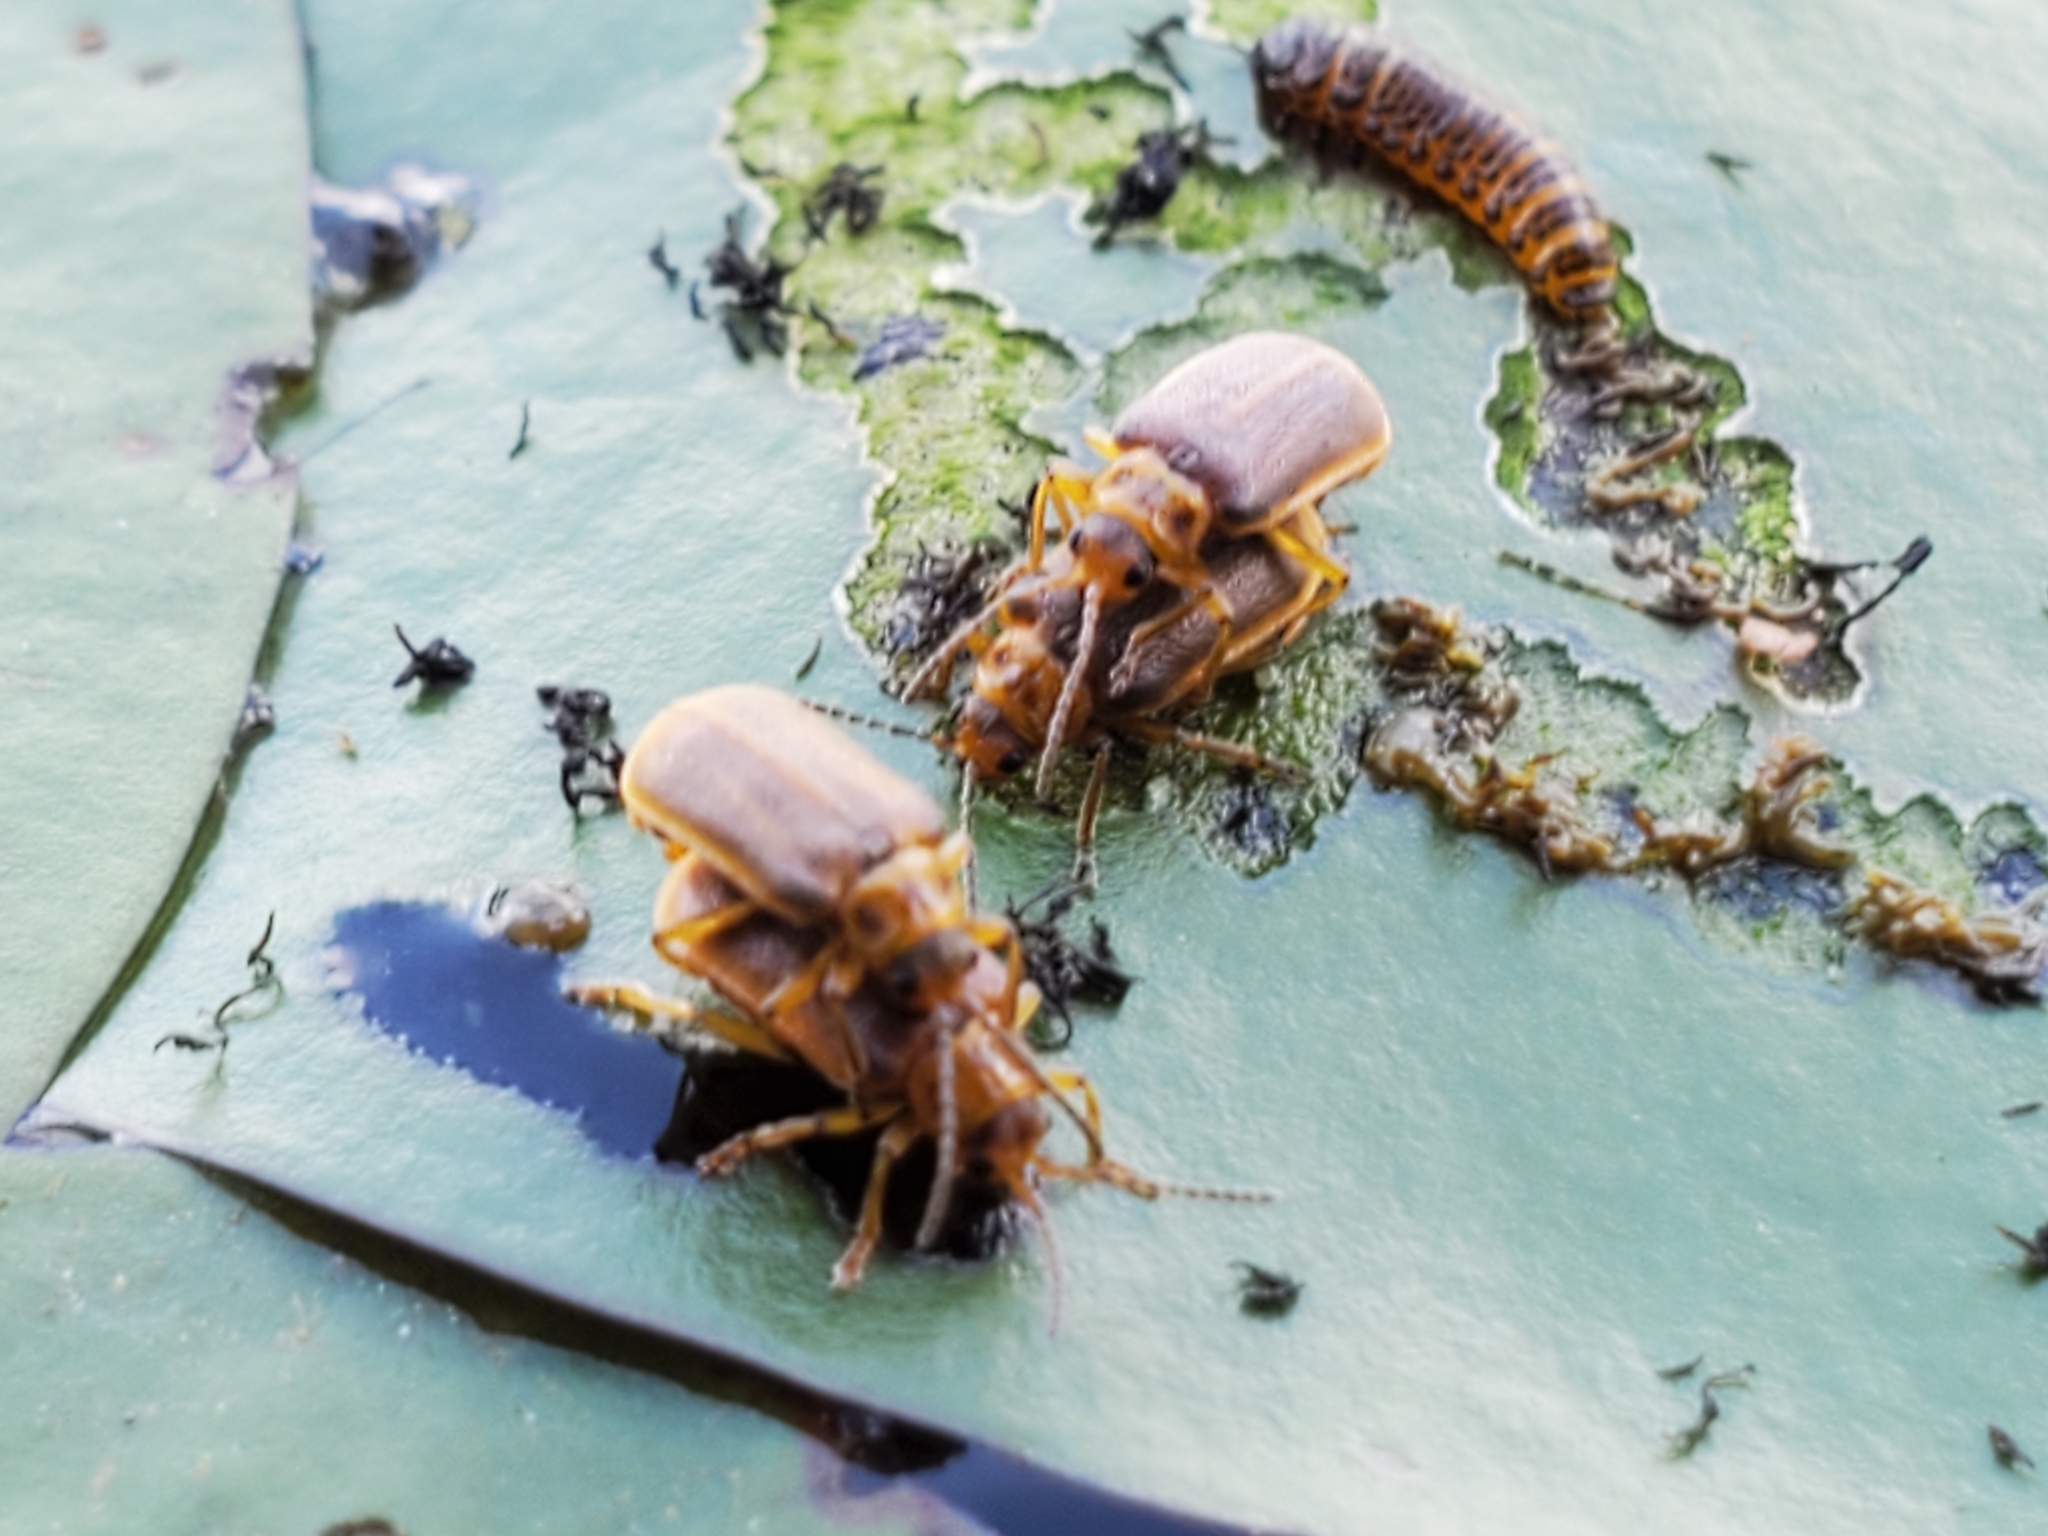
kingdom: Animalia
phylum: Arthropoda
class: Insecta
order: Coleoptera
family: Chrysomelidae
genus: Galerucella
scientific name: Galerucella nymphaeae
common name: Leaf beetle
